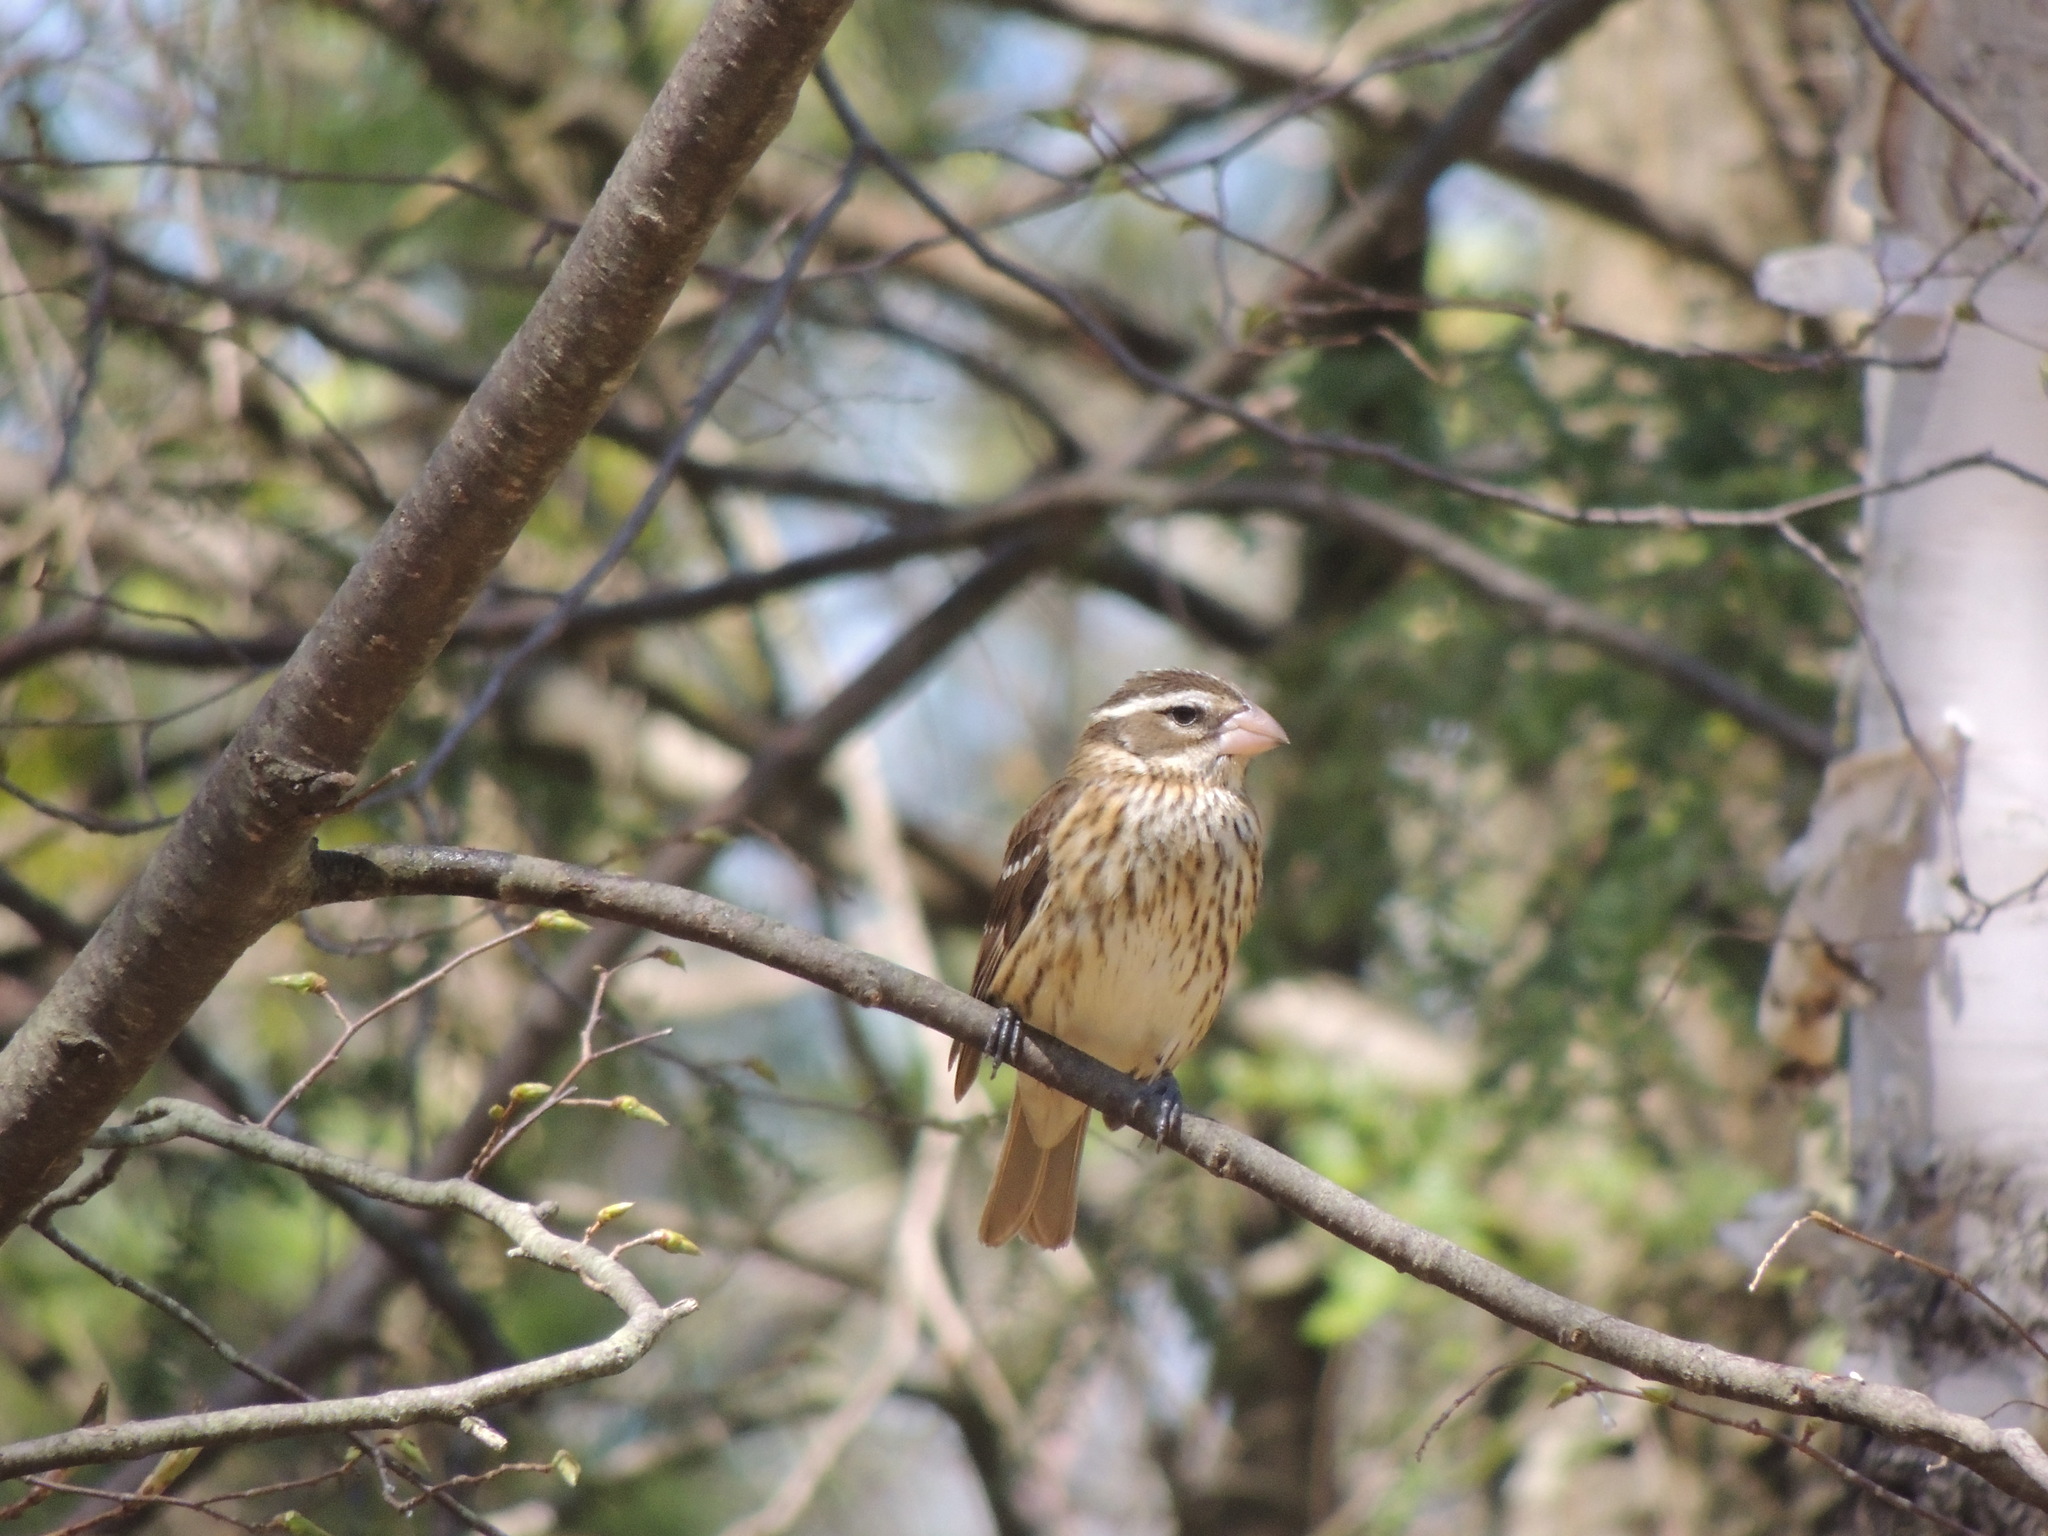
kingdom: Animalia
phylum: Chordata
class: Aves
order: Passeriformes
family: Cardinalidae
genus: Pheucticus
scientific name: Pheucticus ludovicianus
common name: Rose-breasted grosbeak
